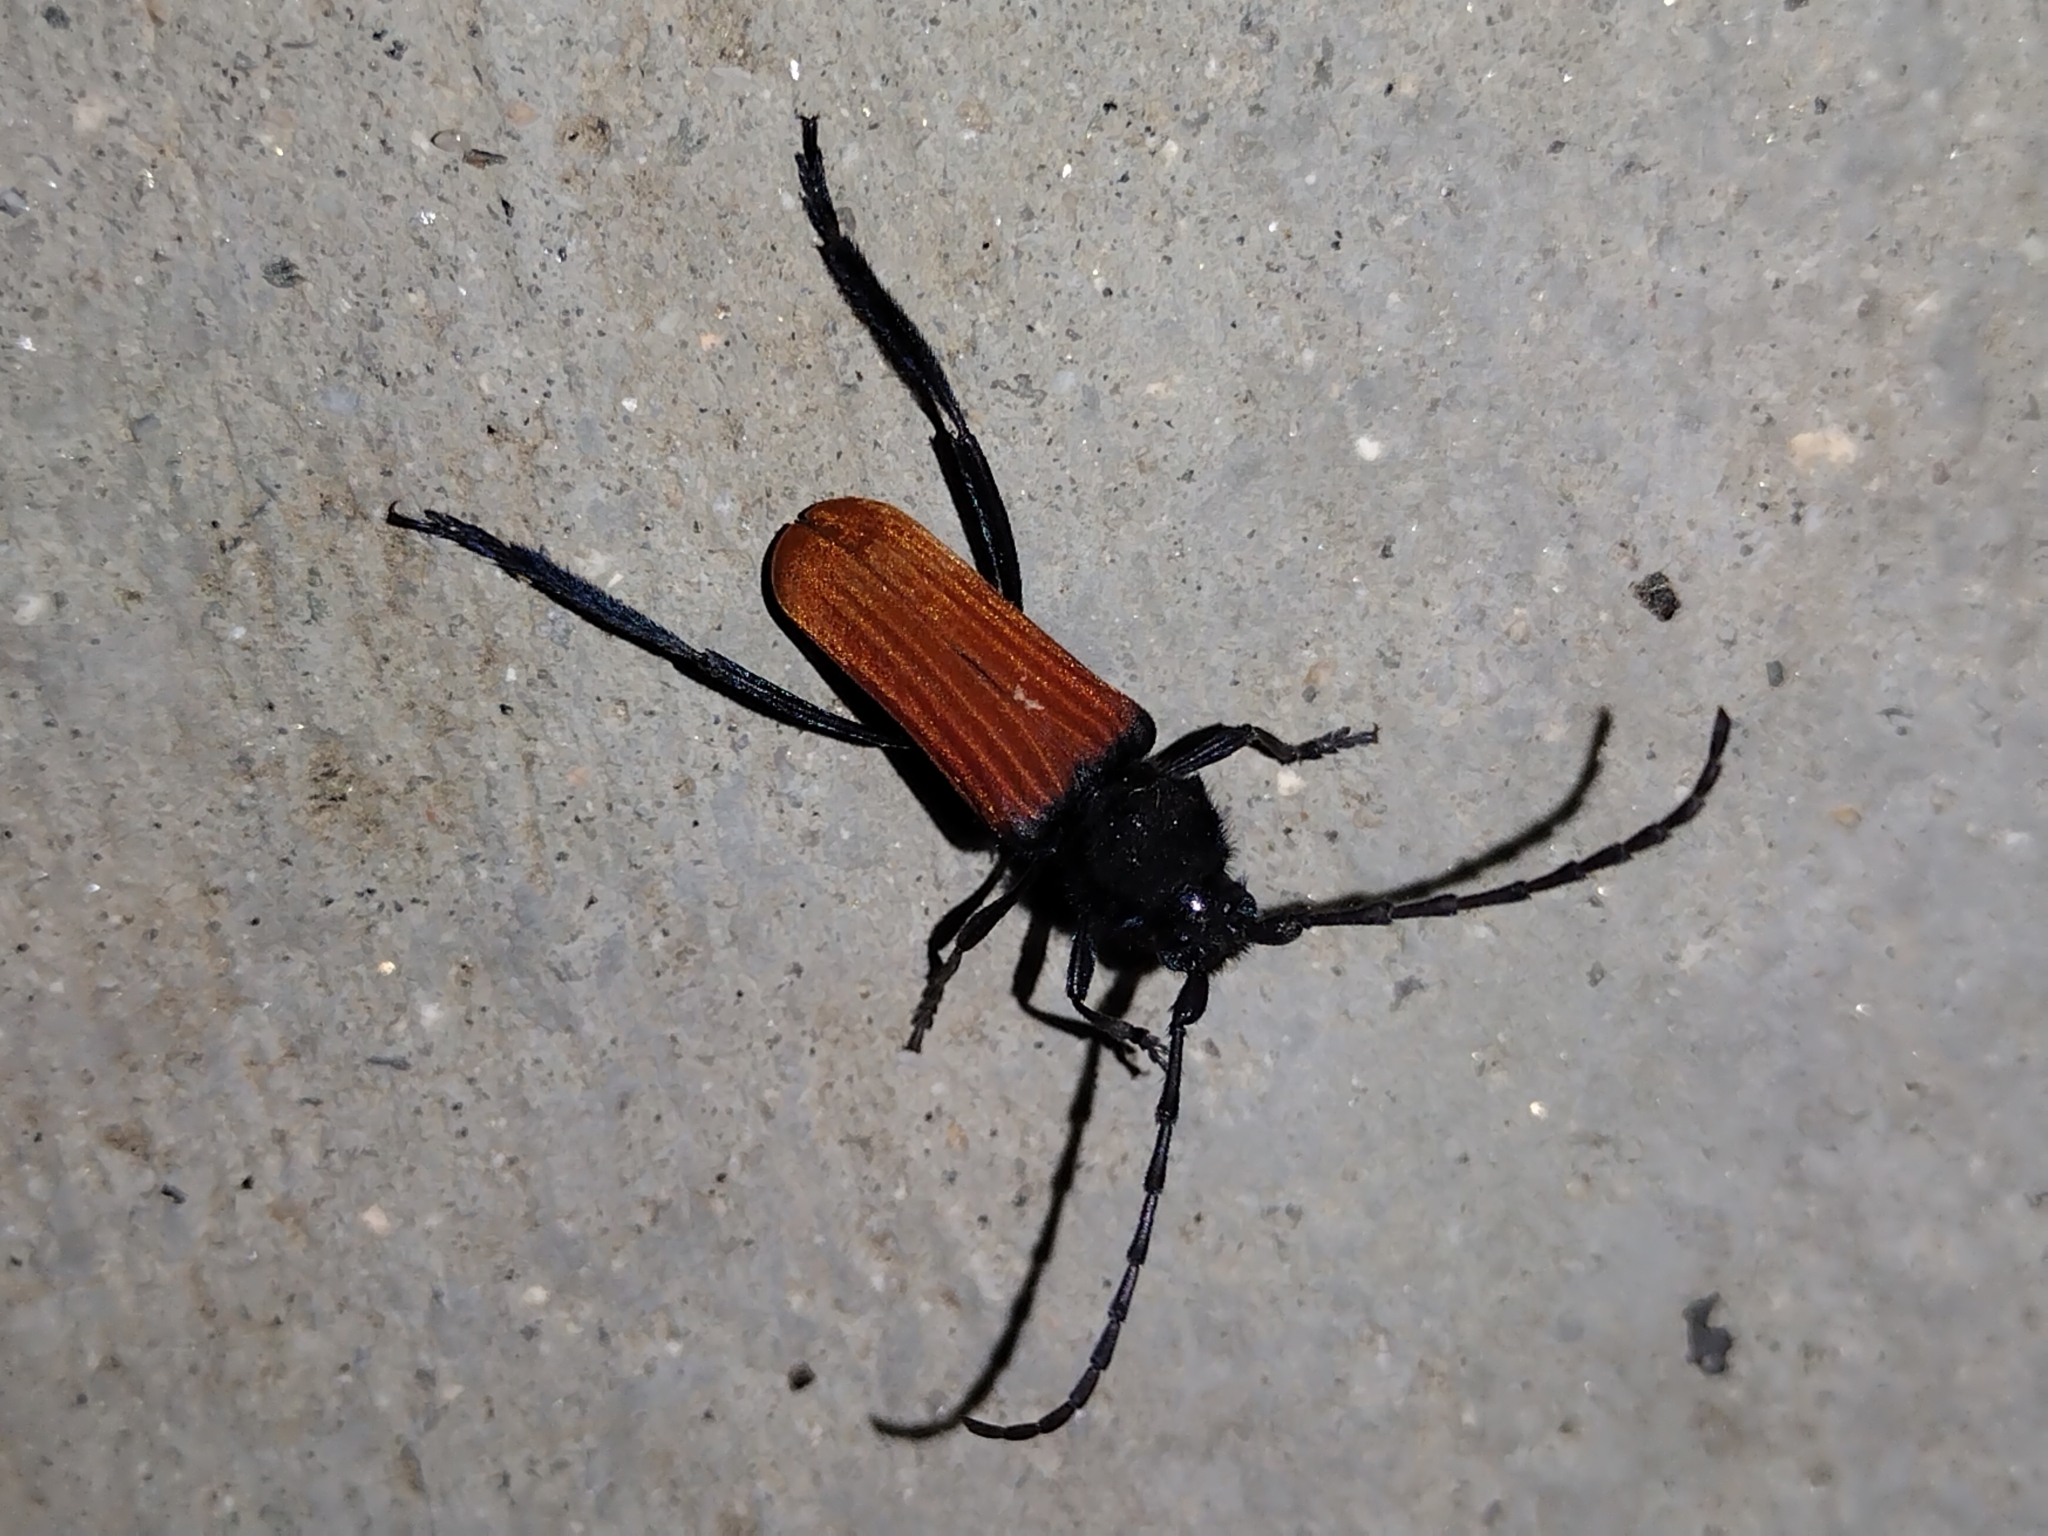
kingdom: Animalia
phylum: Arthropoda
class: Insecta
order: Coleoptera
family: Cerambycidae
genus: Tragidion
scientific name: Tragidion annulatum
